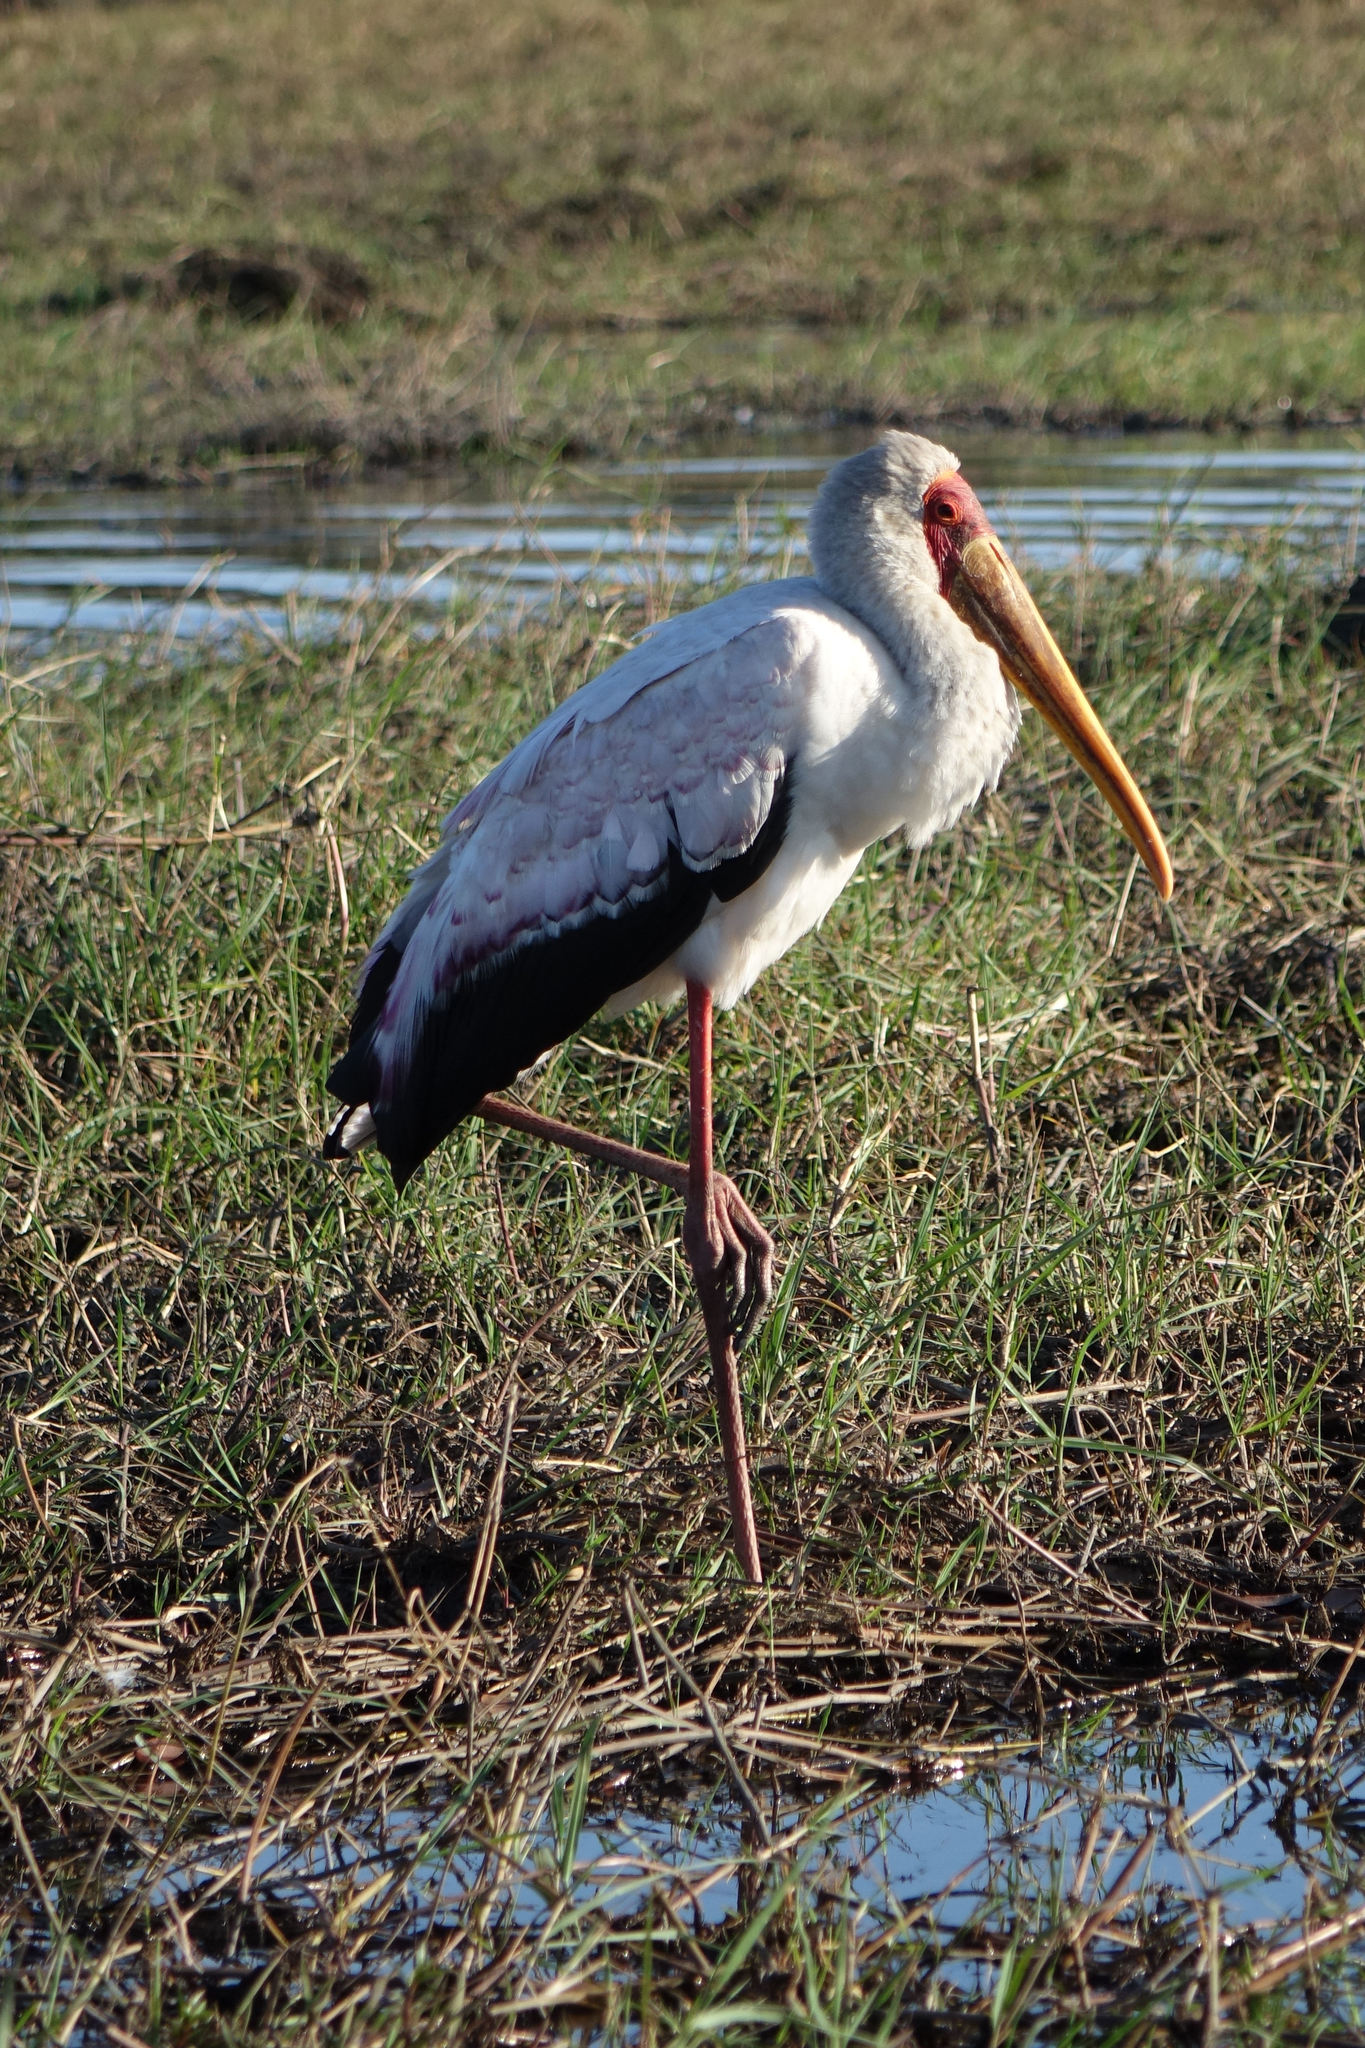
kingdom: Animalia
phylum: Chordata
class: Aves
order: Ciconiiformes
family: Ciconiidae
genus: Mycteria
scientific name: Mycteria ibis
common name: Yellow-billed stork
